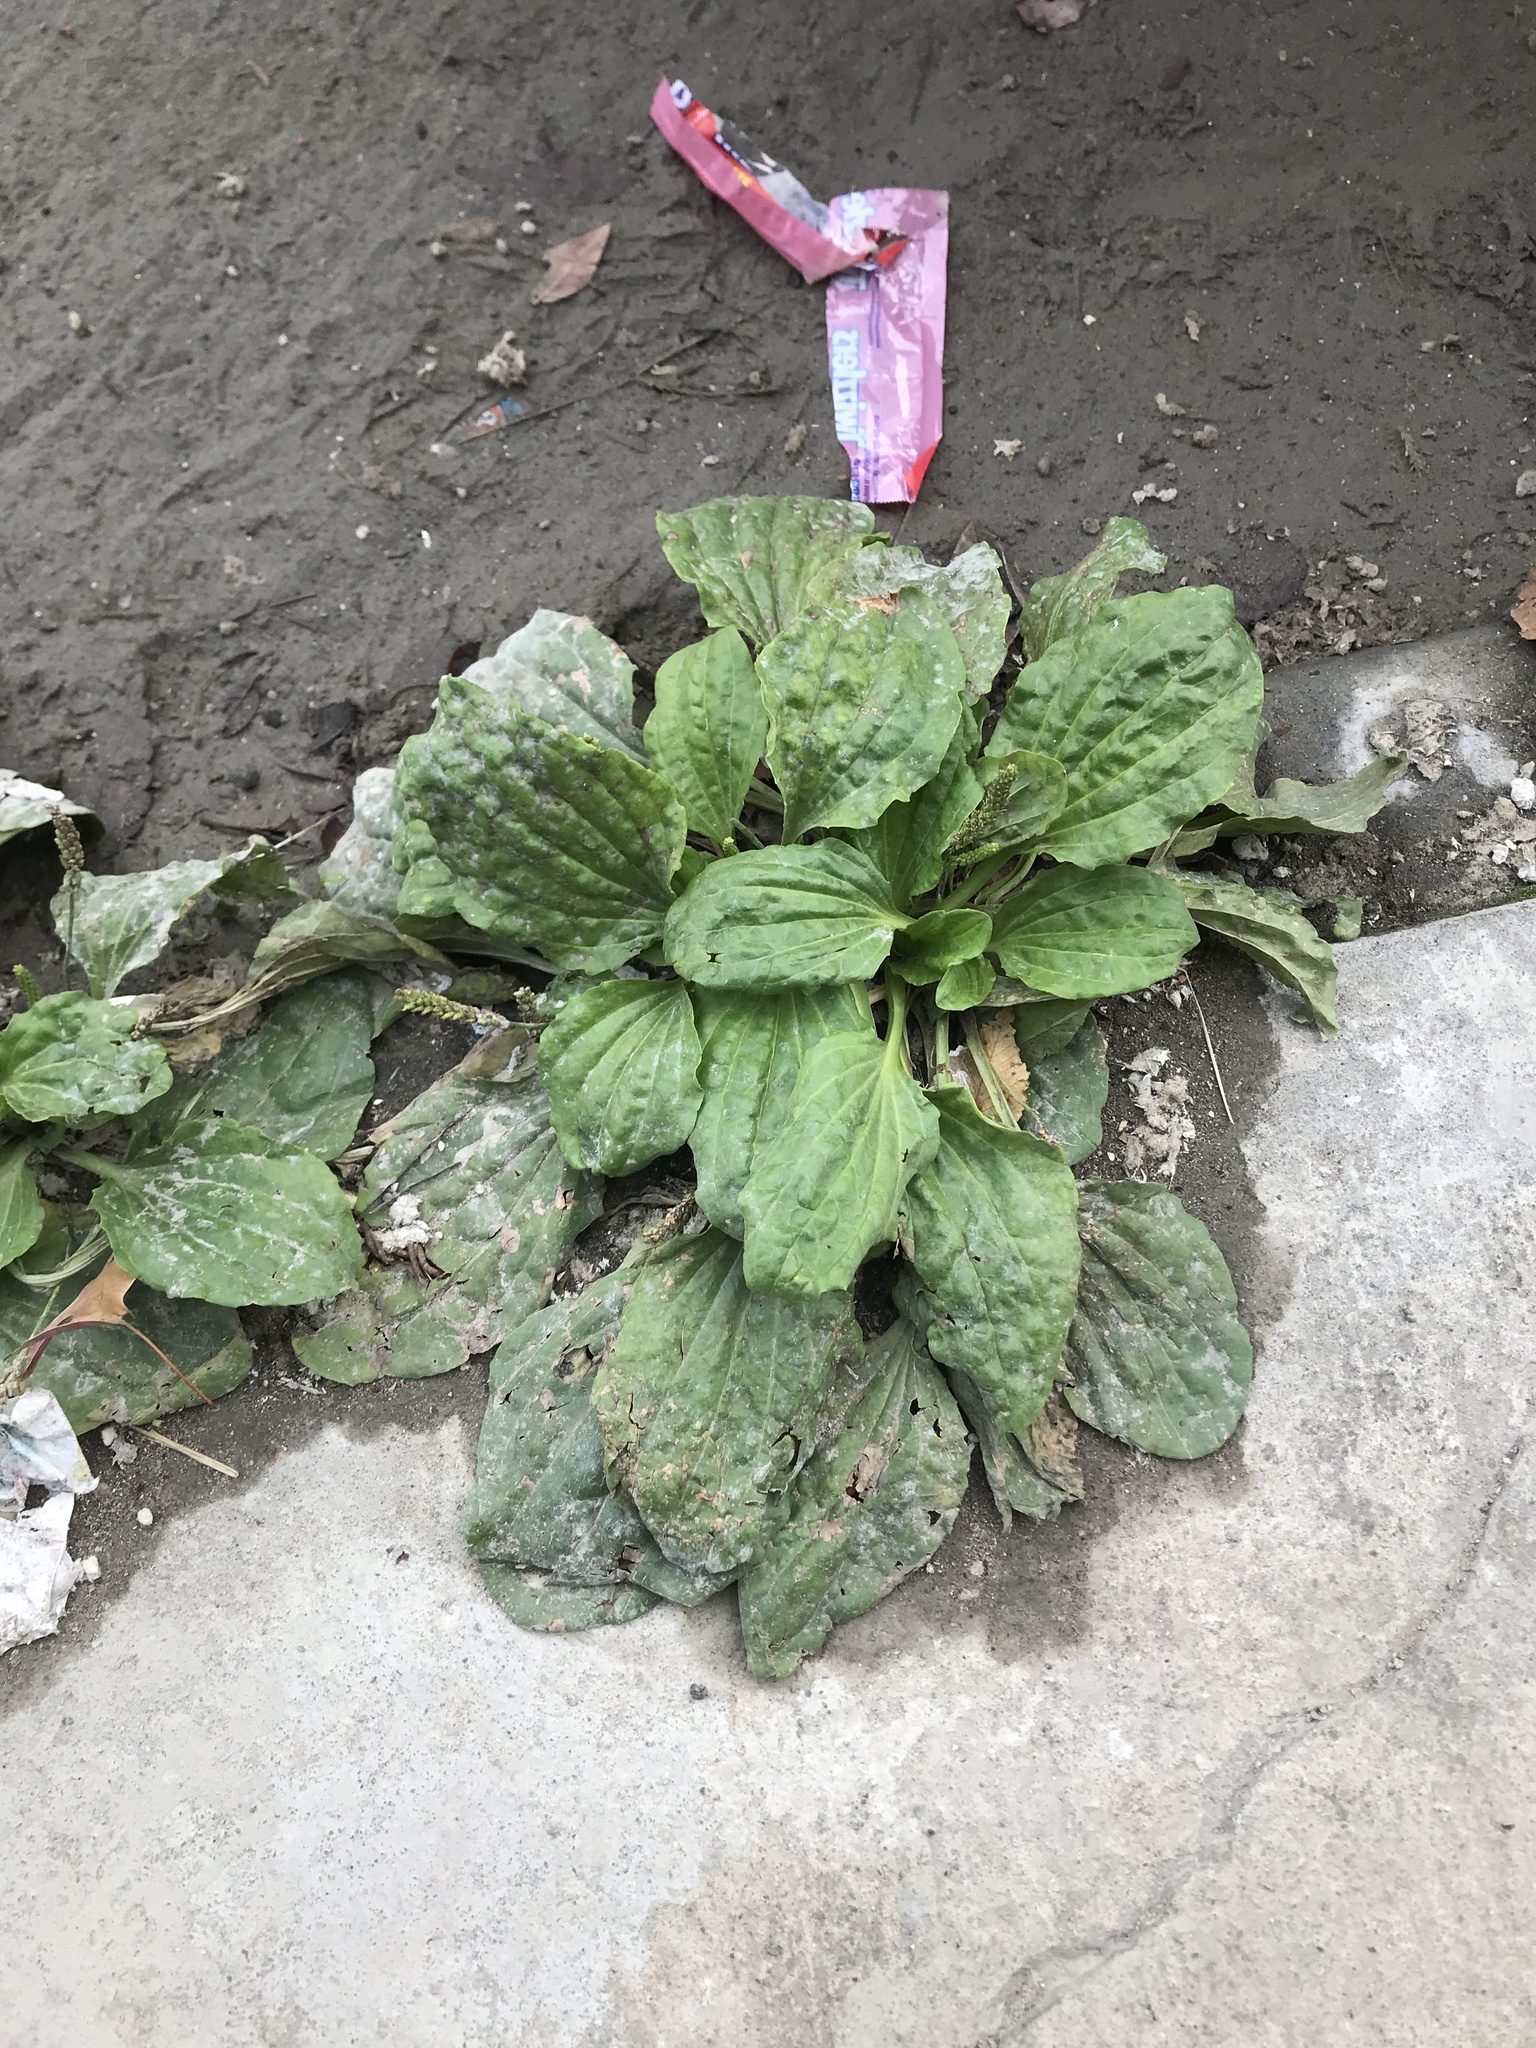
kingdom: Plantae
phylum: Tracheophyta
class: Magnoliopsida
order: Lamiales
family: Plantaginaceae
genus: Plantago
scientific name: Plantago major
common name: Common plantain
